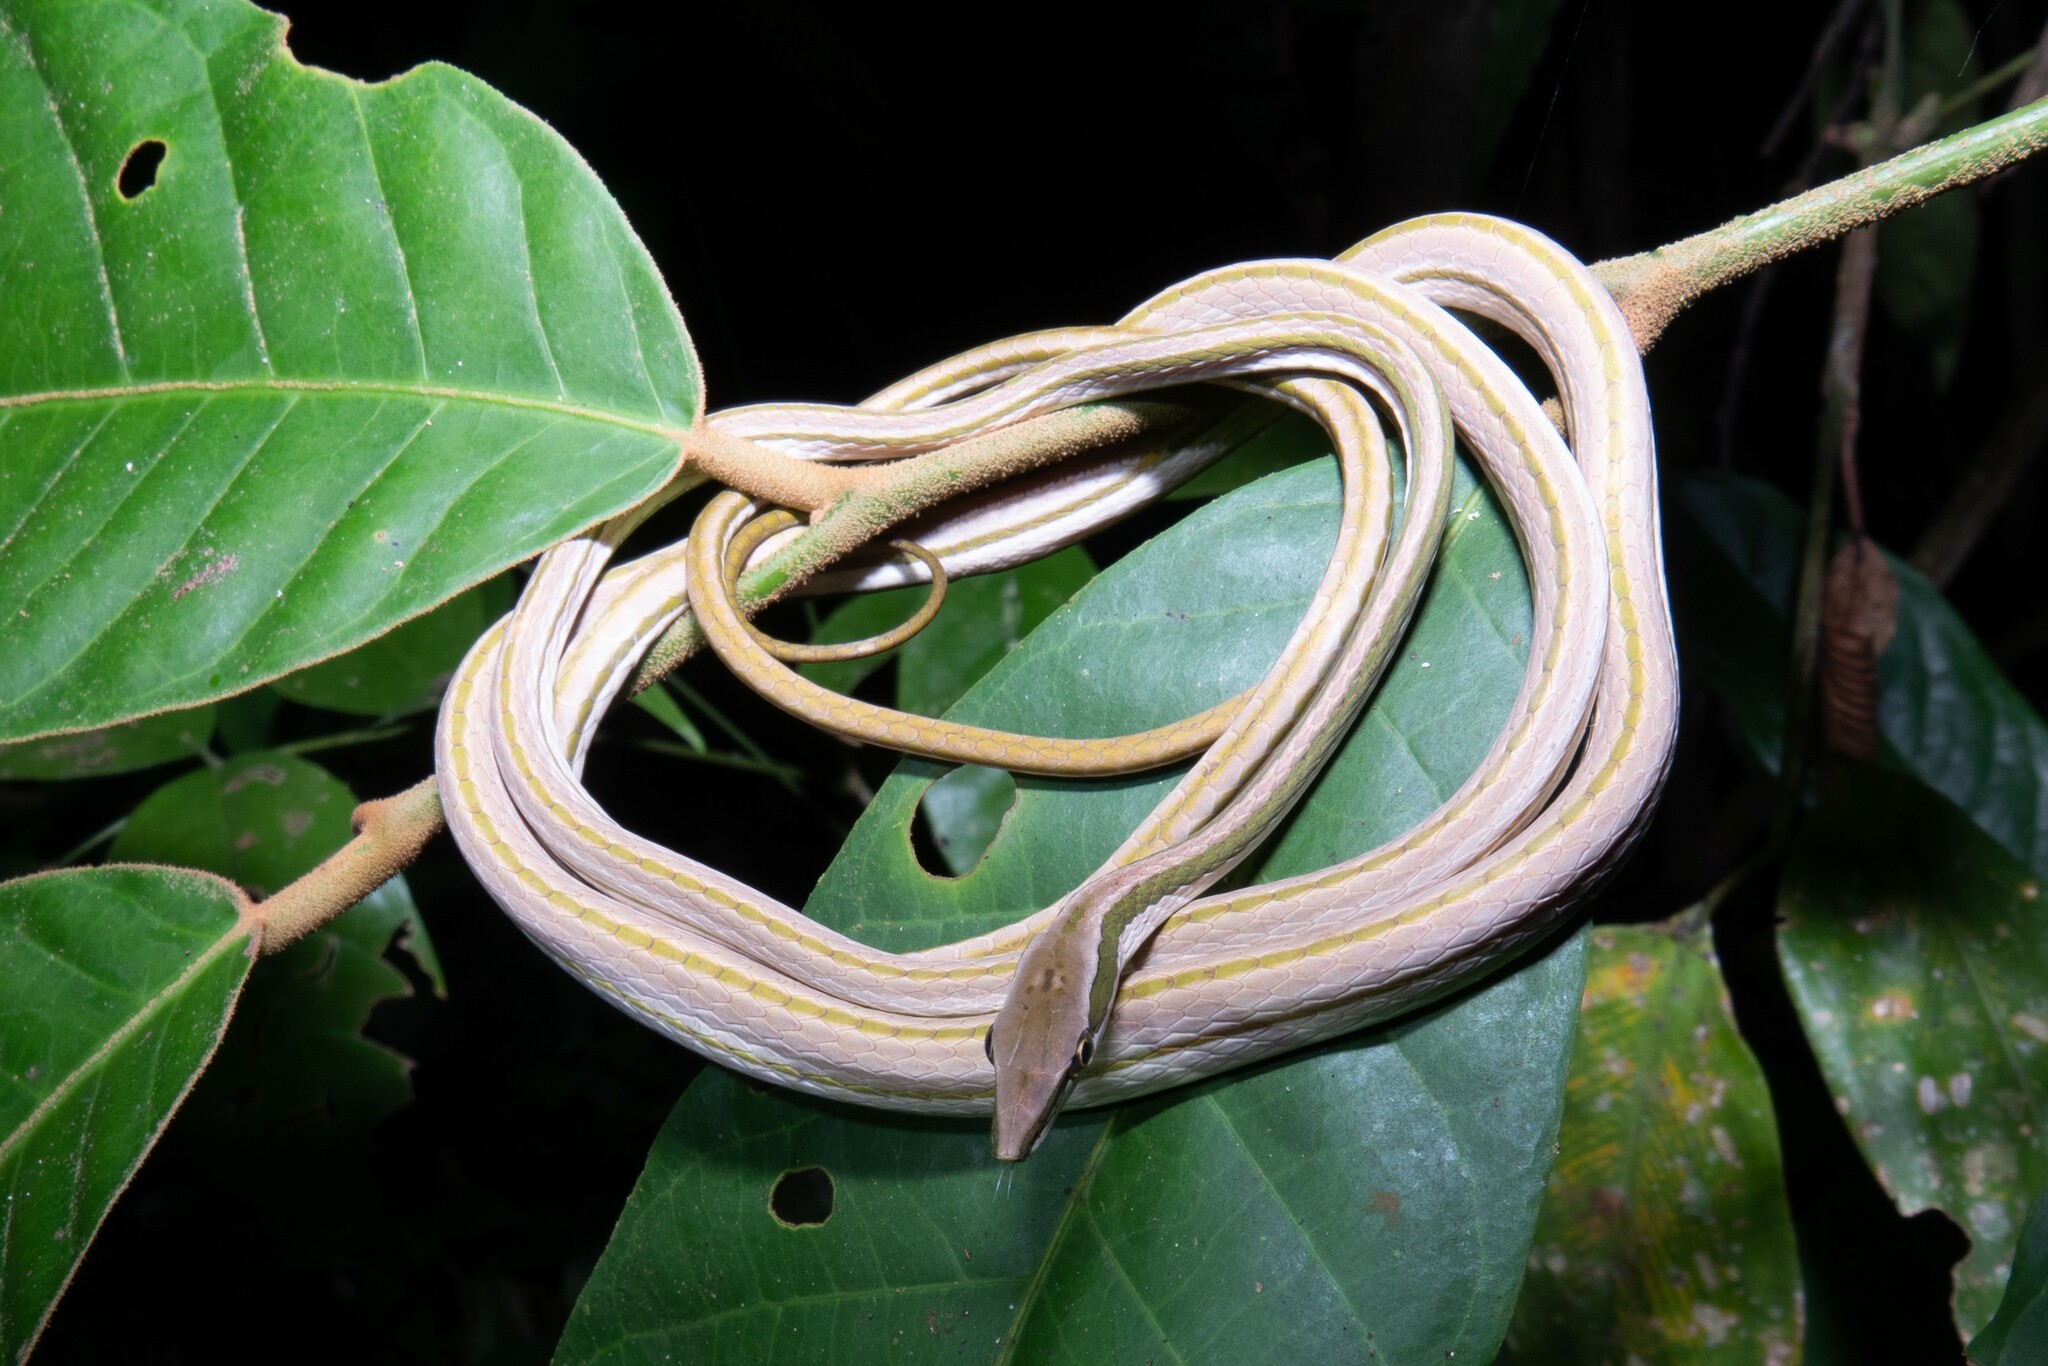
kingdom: Animalia
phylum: Chordata
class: Squamata
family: Colubridae
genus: Xenoxybelis
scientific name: Xenoxybelis argenteus
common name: Striped sharpnose snake
